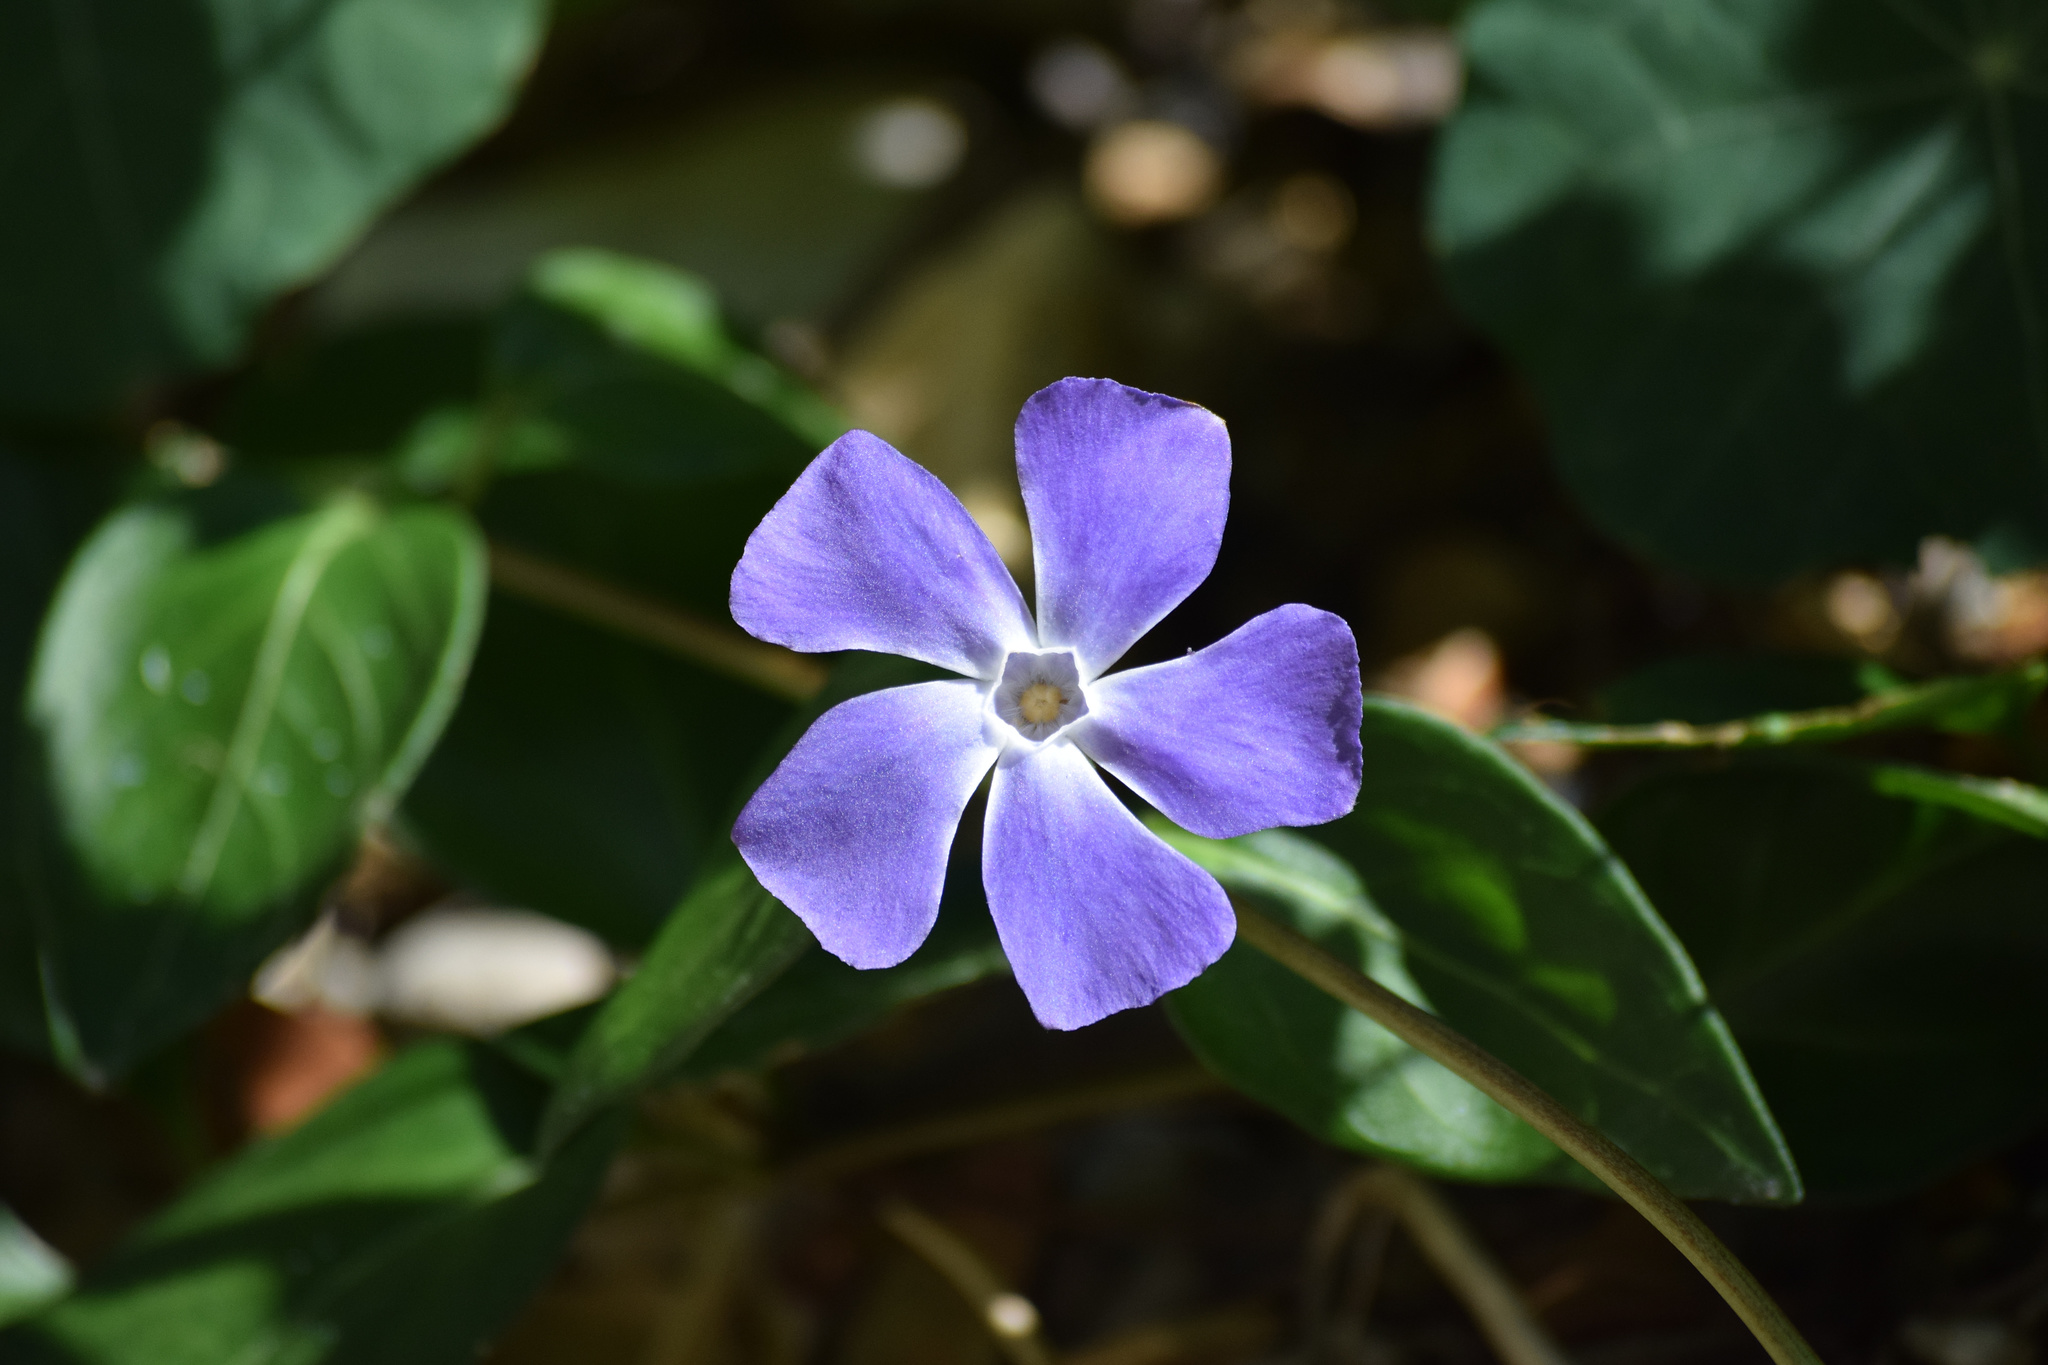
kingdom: Plantae
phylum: Tracheophyta
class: Magnoliopsida
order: Gentianales
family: Apocynaceae
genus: Vinca
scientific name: Vinca major
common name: Greater periwinkle
